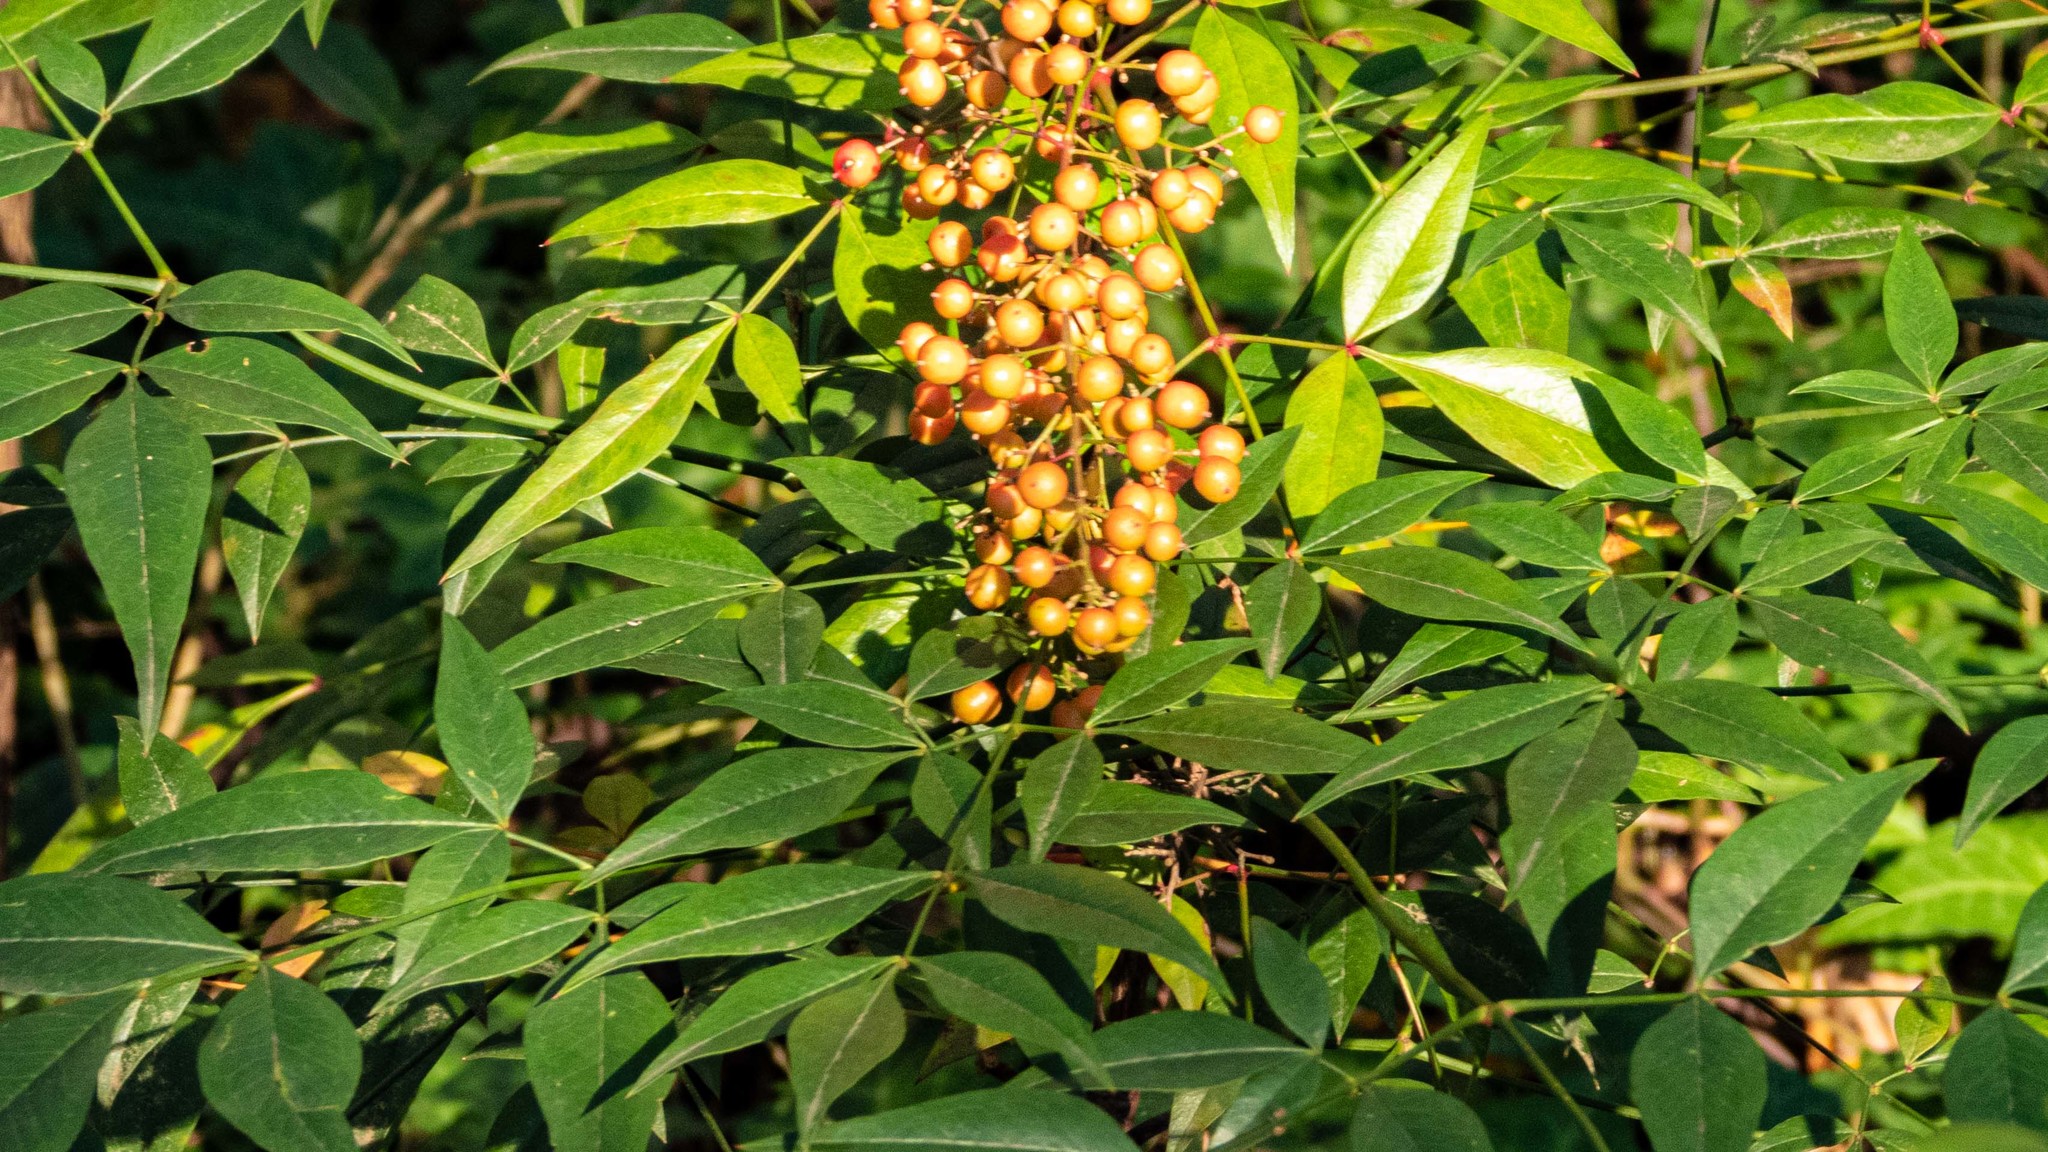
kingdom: Plantae
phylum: Tracheophyta
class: Magnoliopsida
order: Ranunculales
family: Berberidaceae
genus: Nandina
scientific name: Nandina domestica
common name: Sacred bamboo
